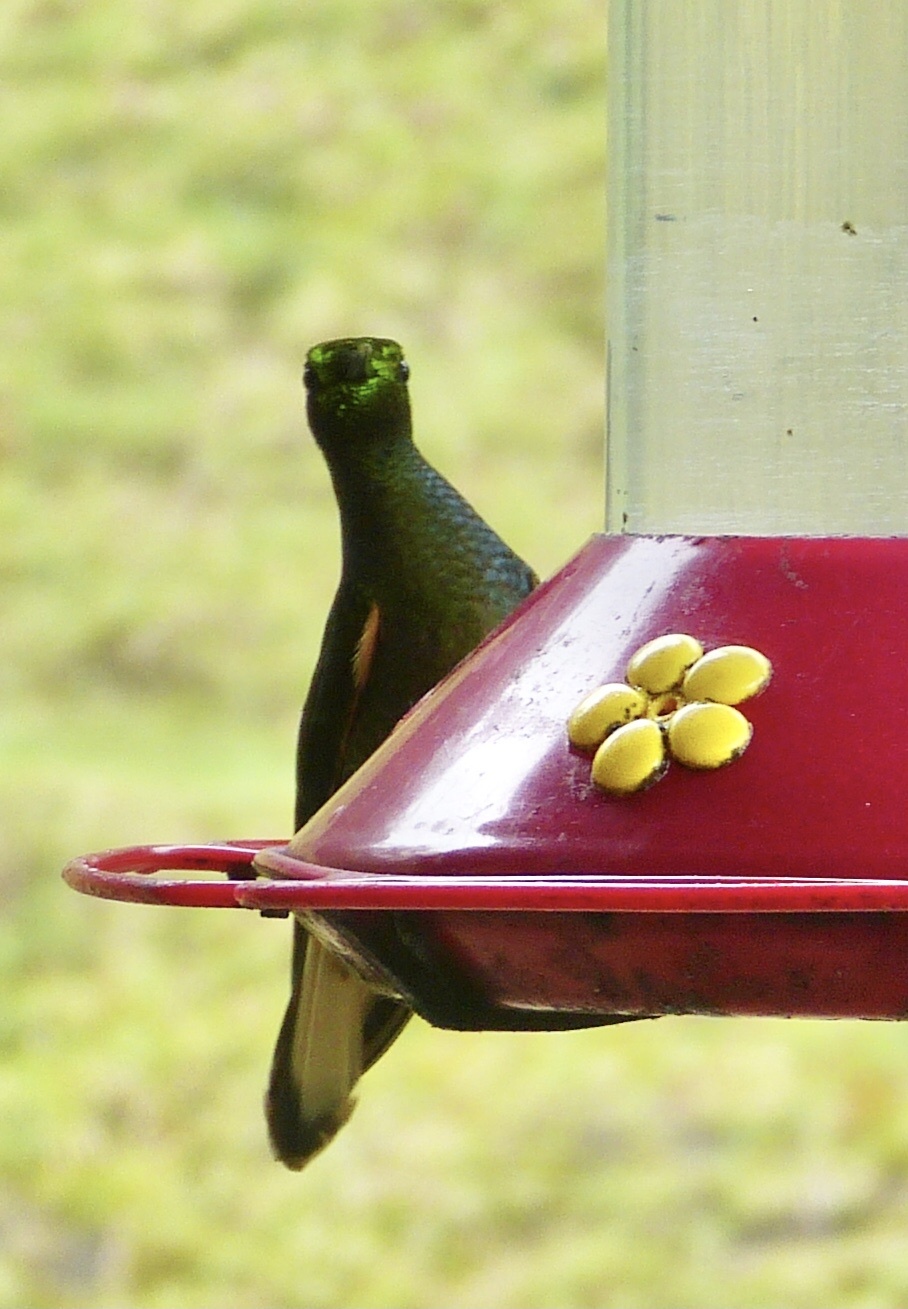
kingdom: Animalia
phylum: Chordata
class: Aves
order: Apodiformes
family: Trochilidae
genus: Boissonneaua
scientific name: Boissonneaua flavescens
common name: Buff-tailed coronet
